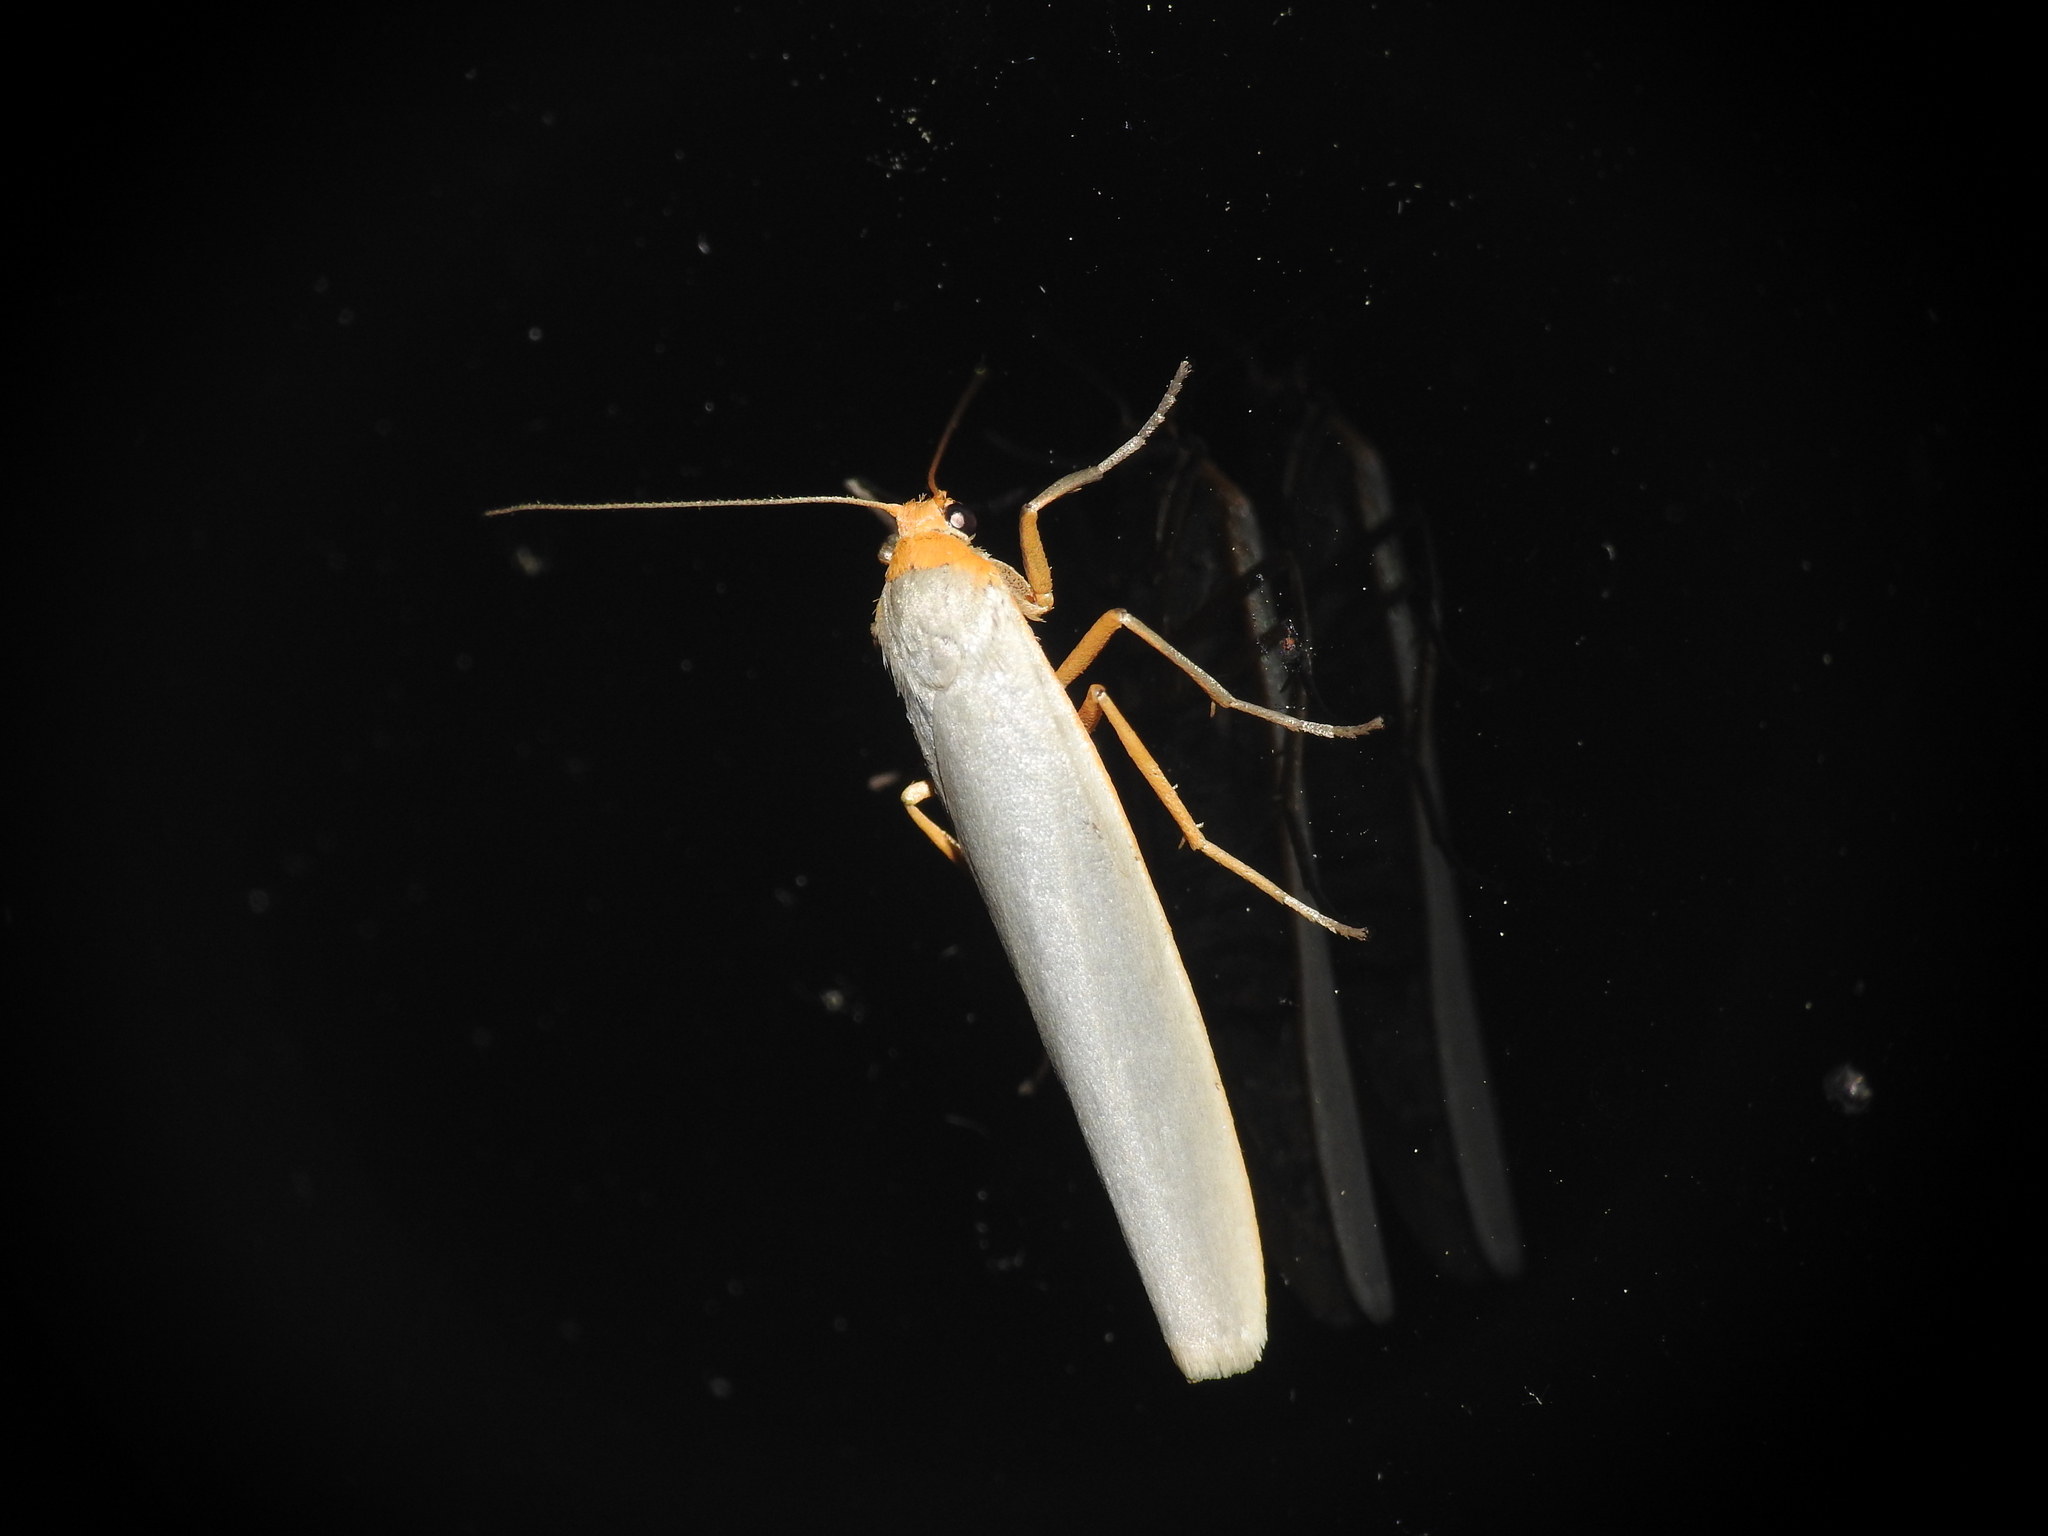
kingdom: Animalia
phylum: Arthropoda
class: Insecta
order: Lepidoptera
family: Erebidae
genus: Eilema
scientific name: Eilema caniola
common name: Hoary footman
